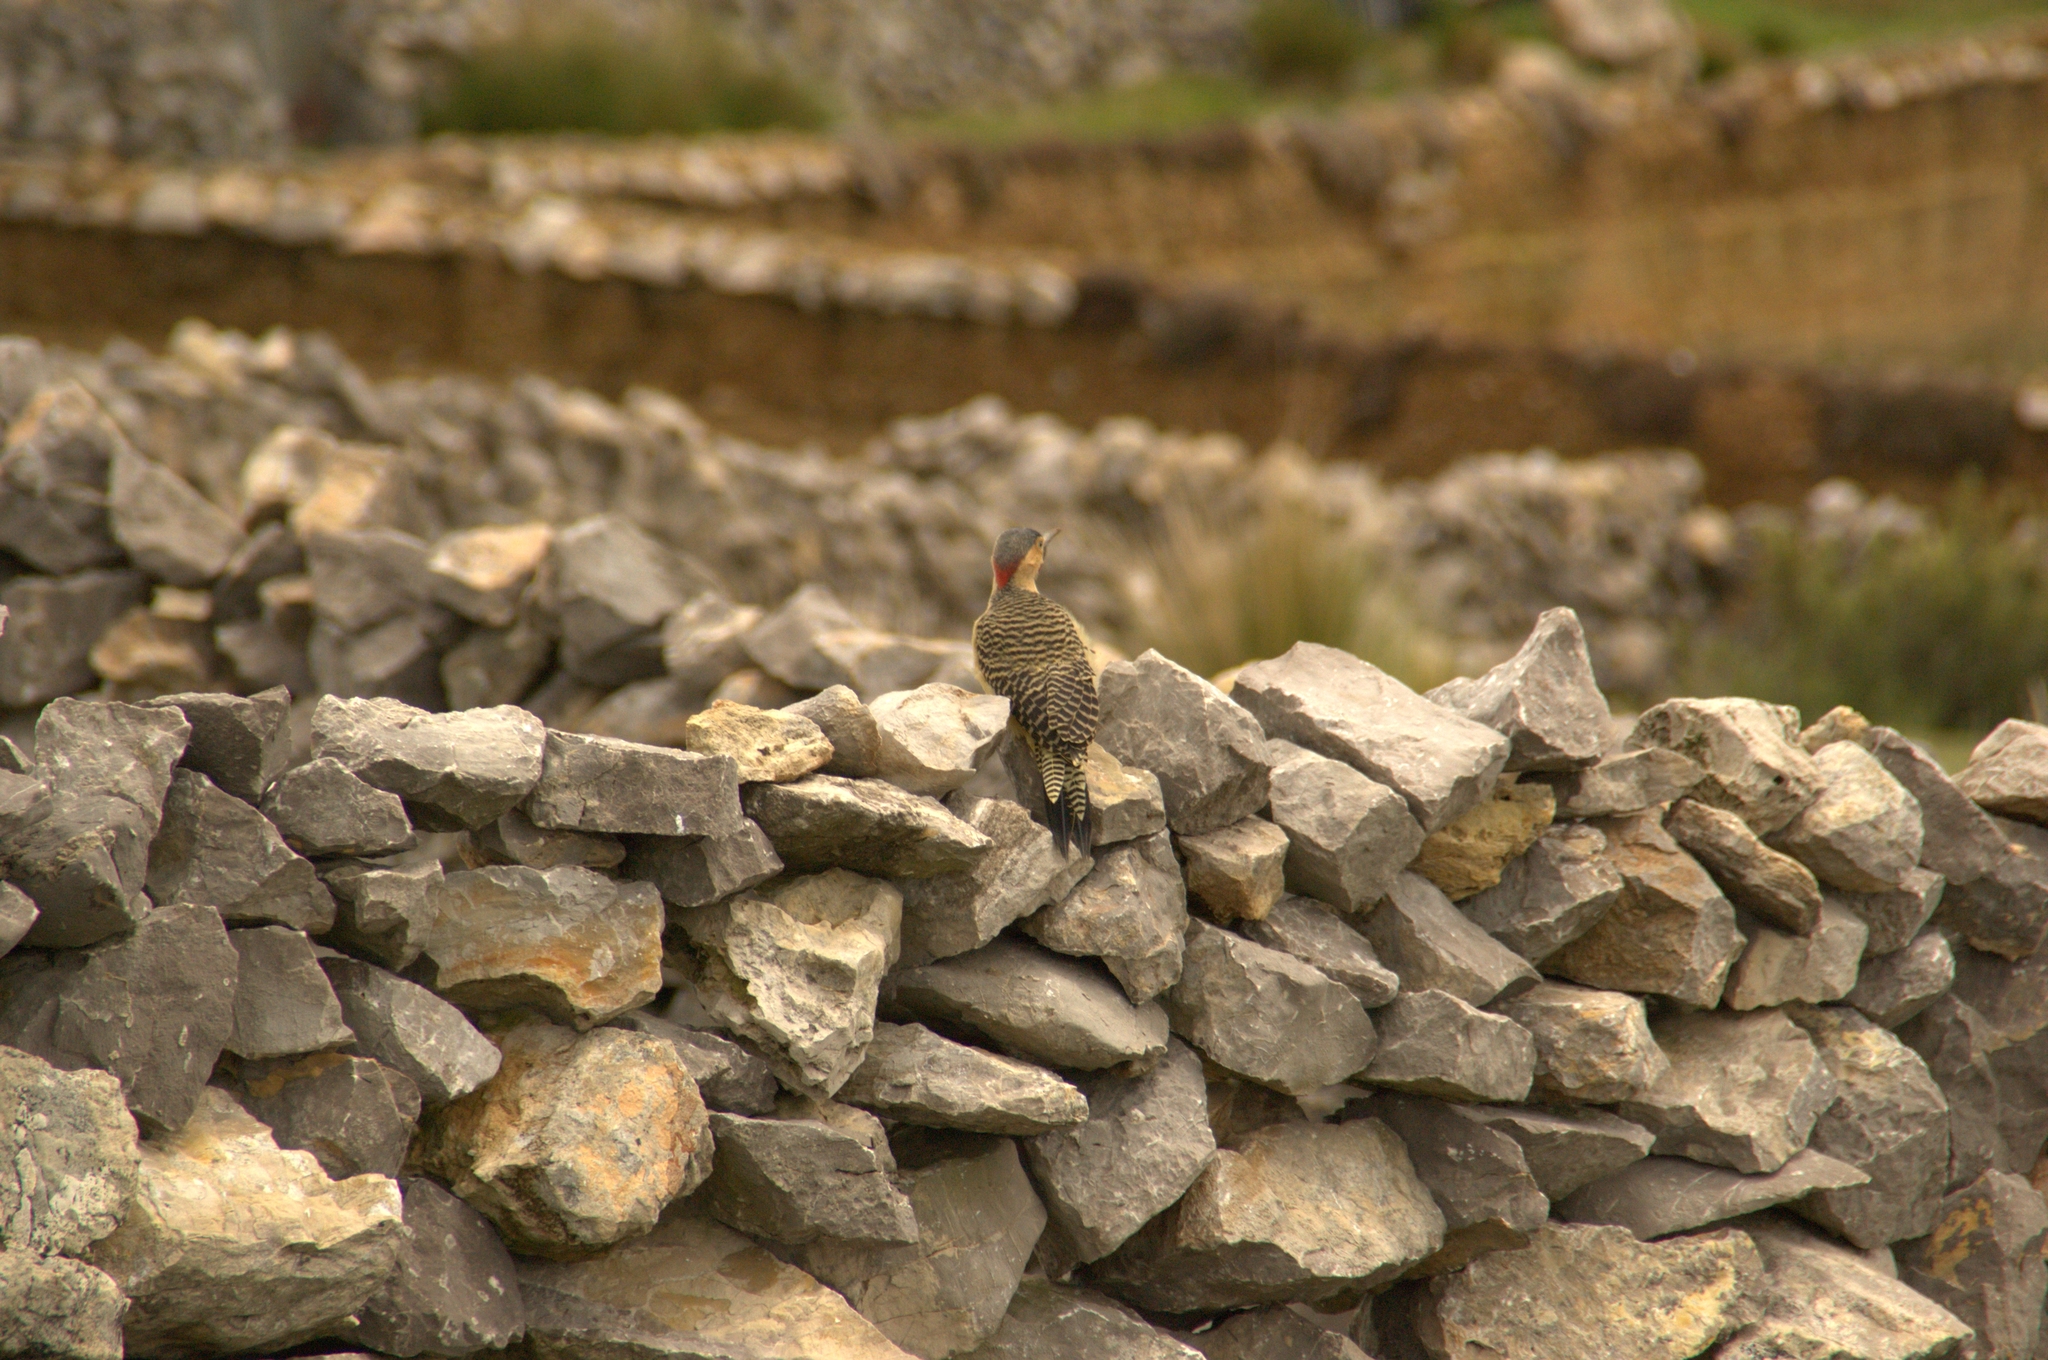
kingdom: Animalia
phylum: Chordata
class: Aves
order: Piciformes
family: Picidae
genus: Colaptes
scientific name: Colaptes rupicola
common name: Andean flicker
